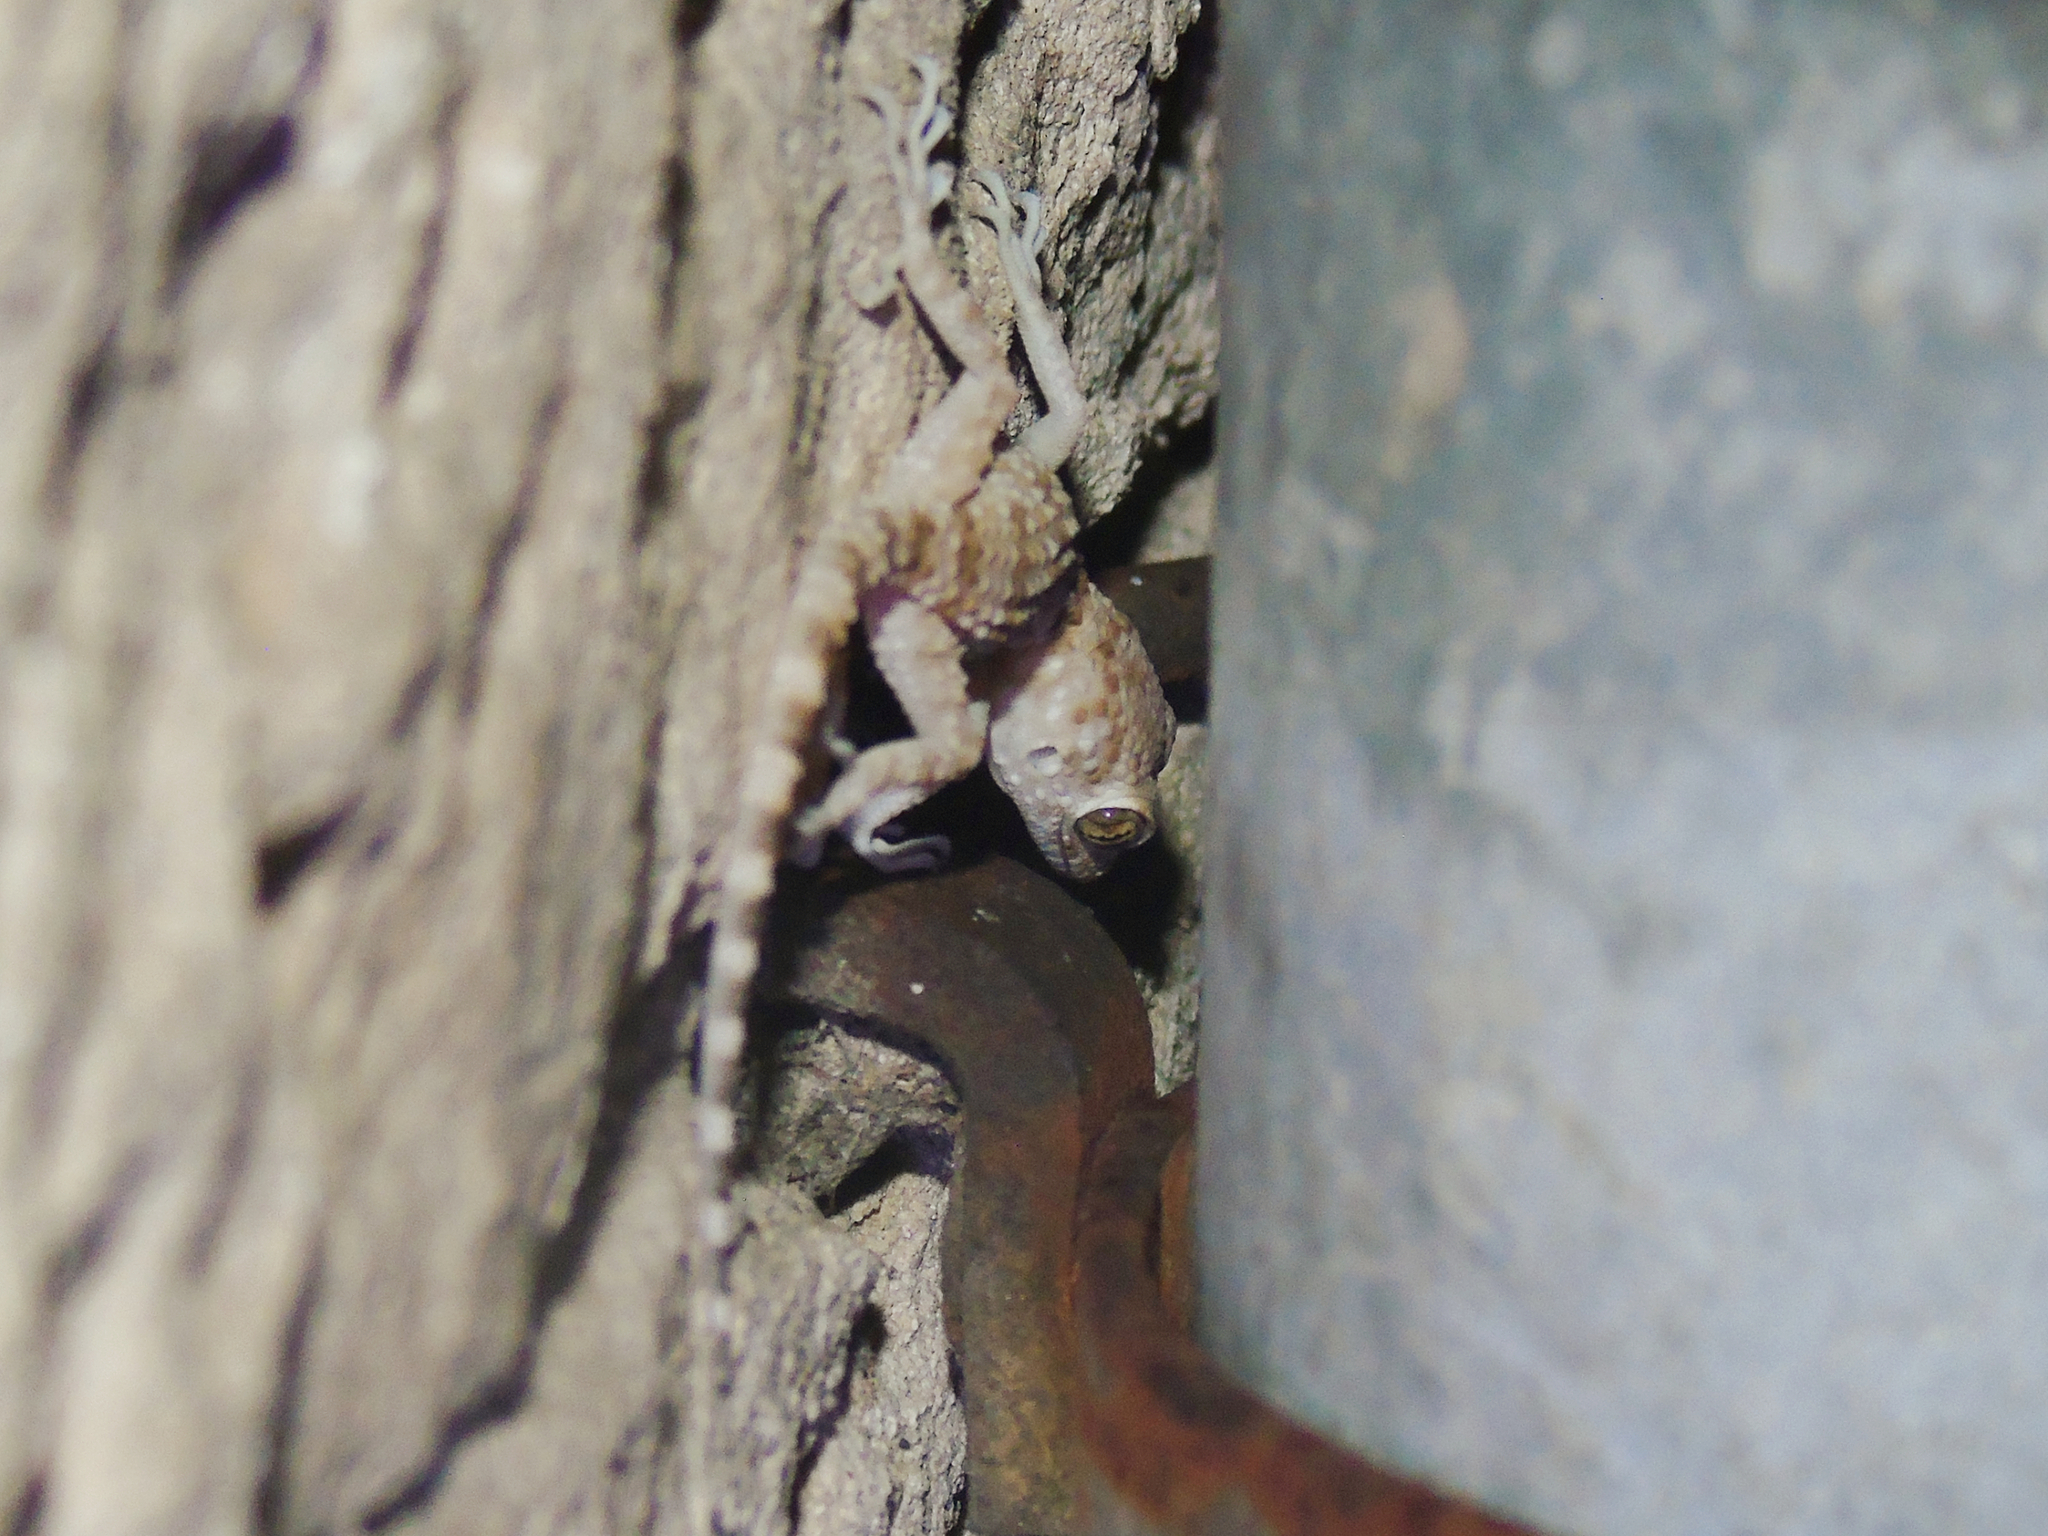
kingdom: Animalia
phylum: Chordata
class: Squamata
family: Gekkonidae
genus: Tenuidactylus
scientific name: Tenuidactylus caspius
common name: Caspian bent-toed gecko
